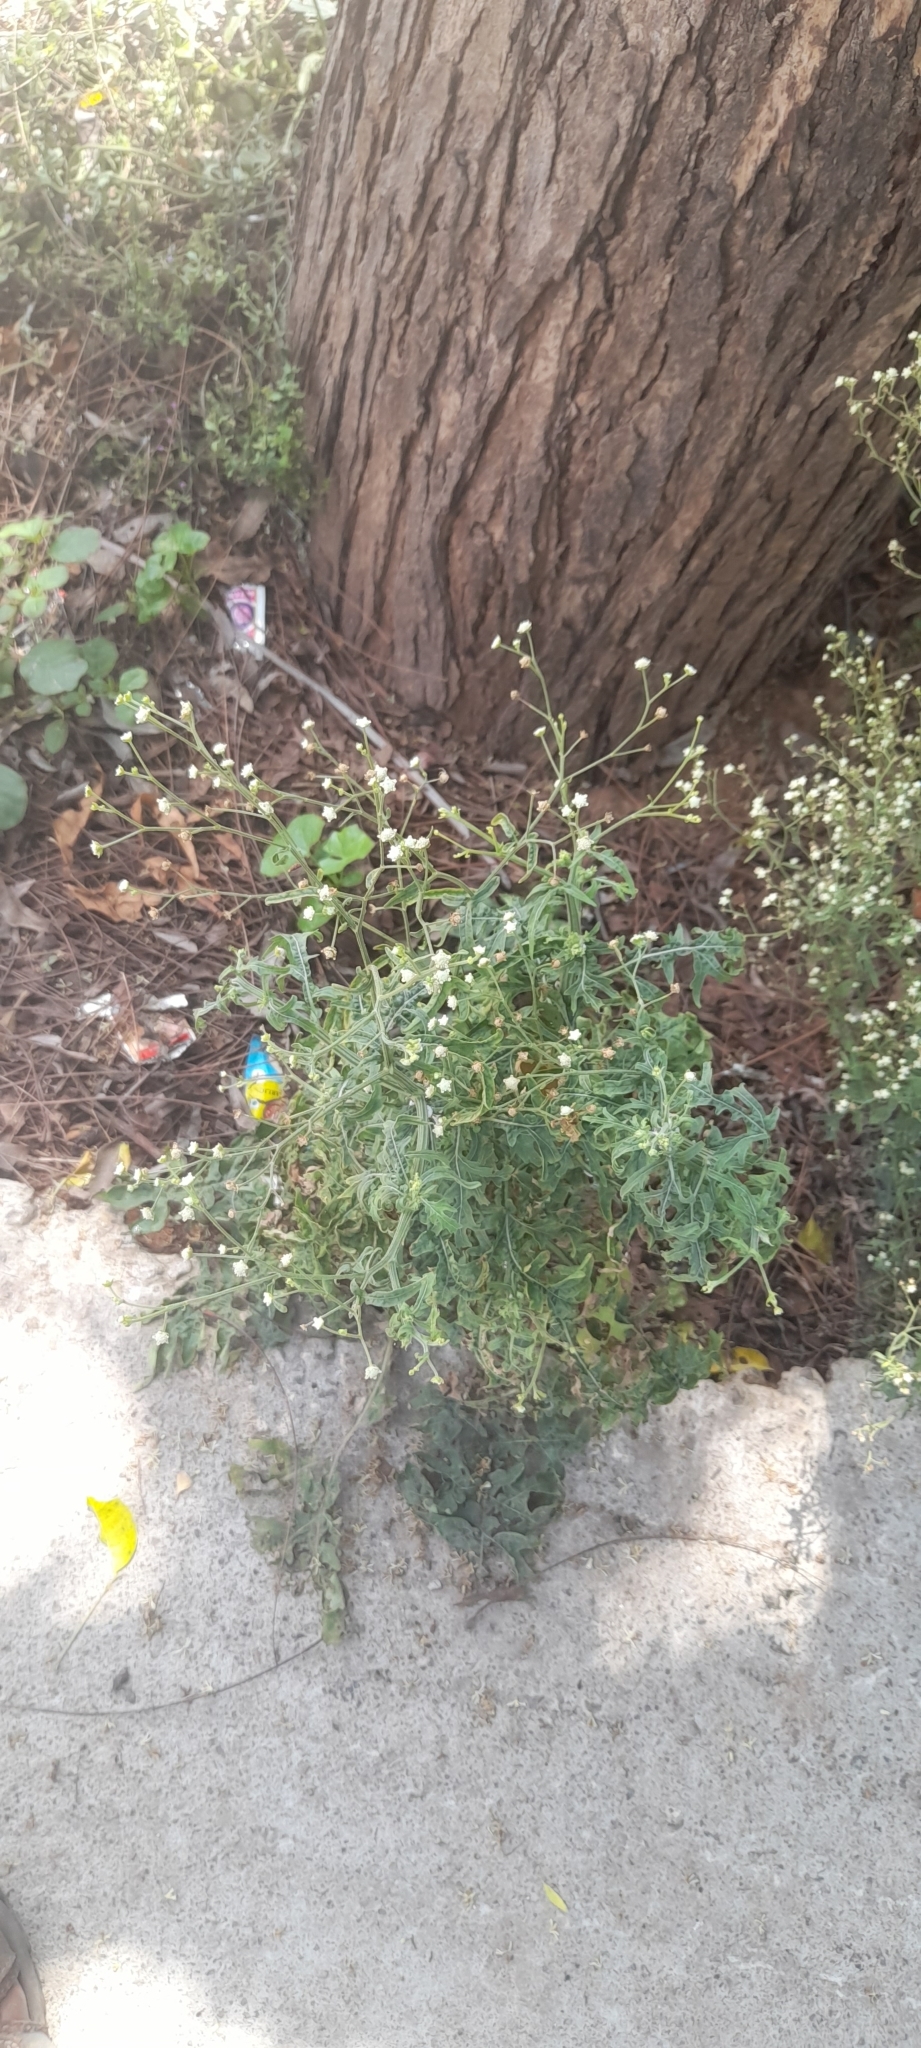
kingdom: Plantae
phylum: Tracheophyta
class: Magnoliopsida
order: Asterales
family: Asteraceae
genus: Parthenium
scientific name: Parthenium hysterophorus
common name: Santa maria feverfew
